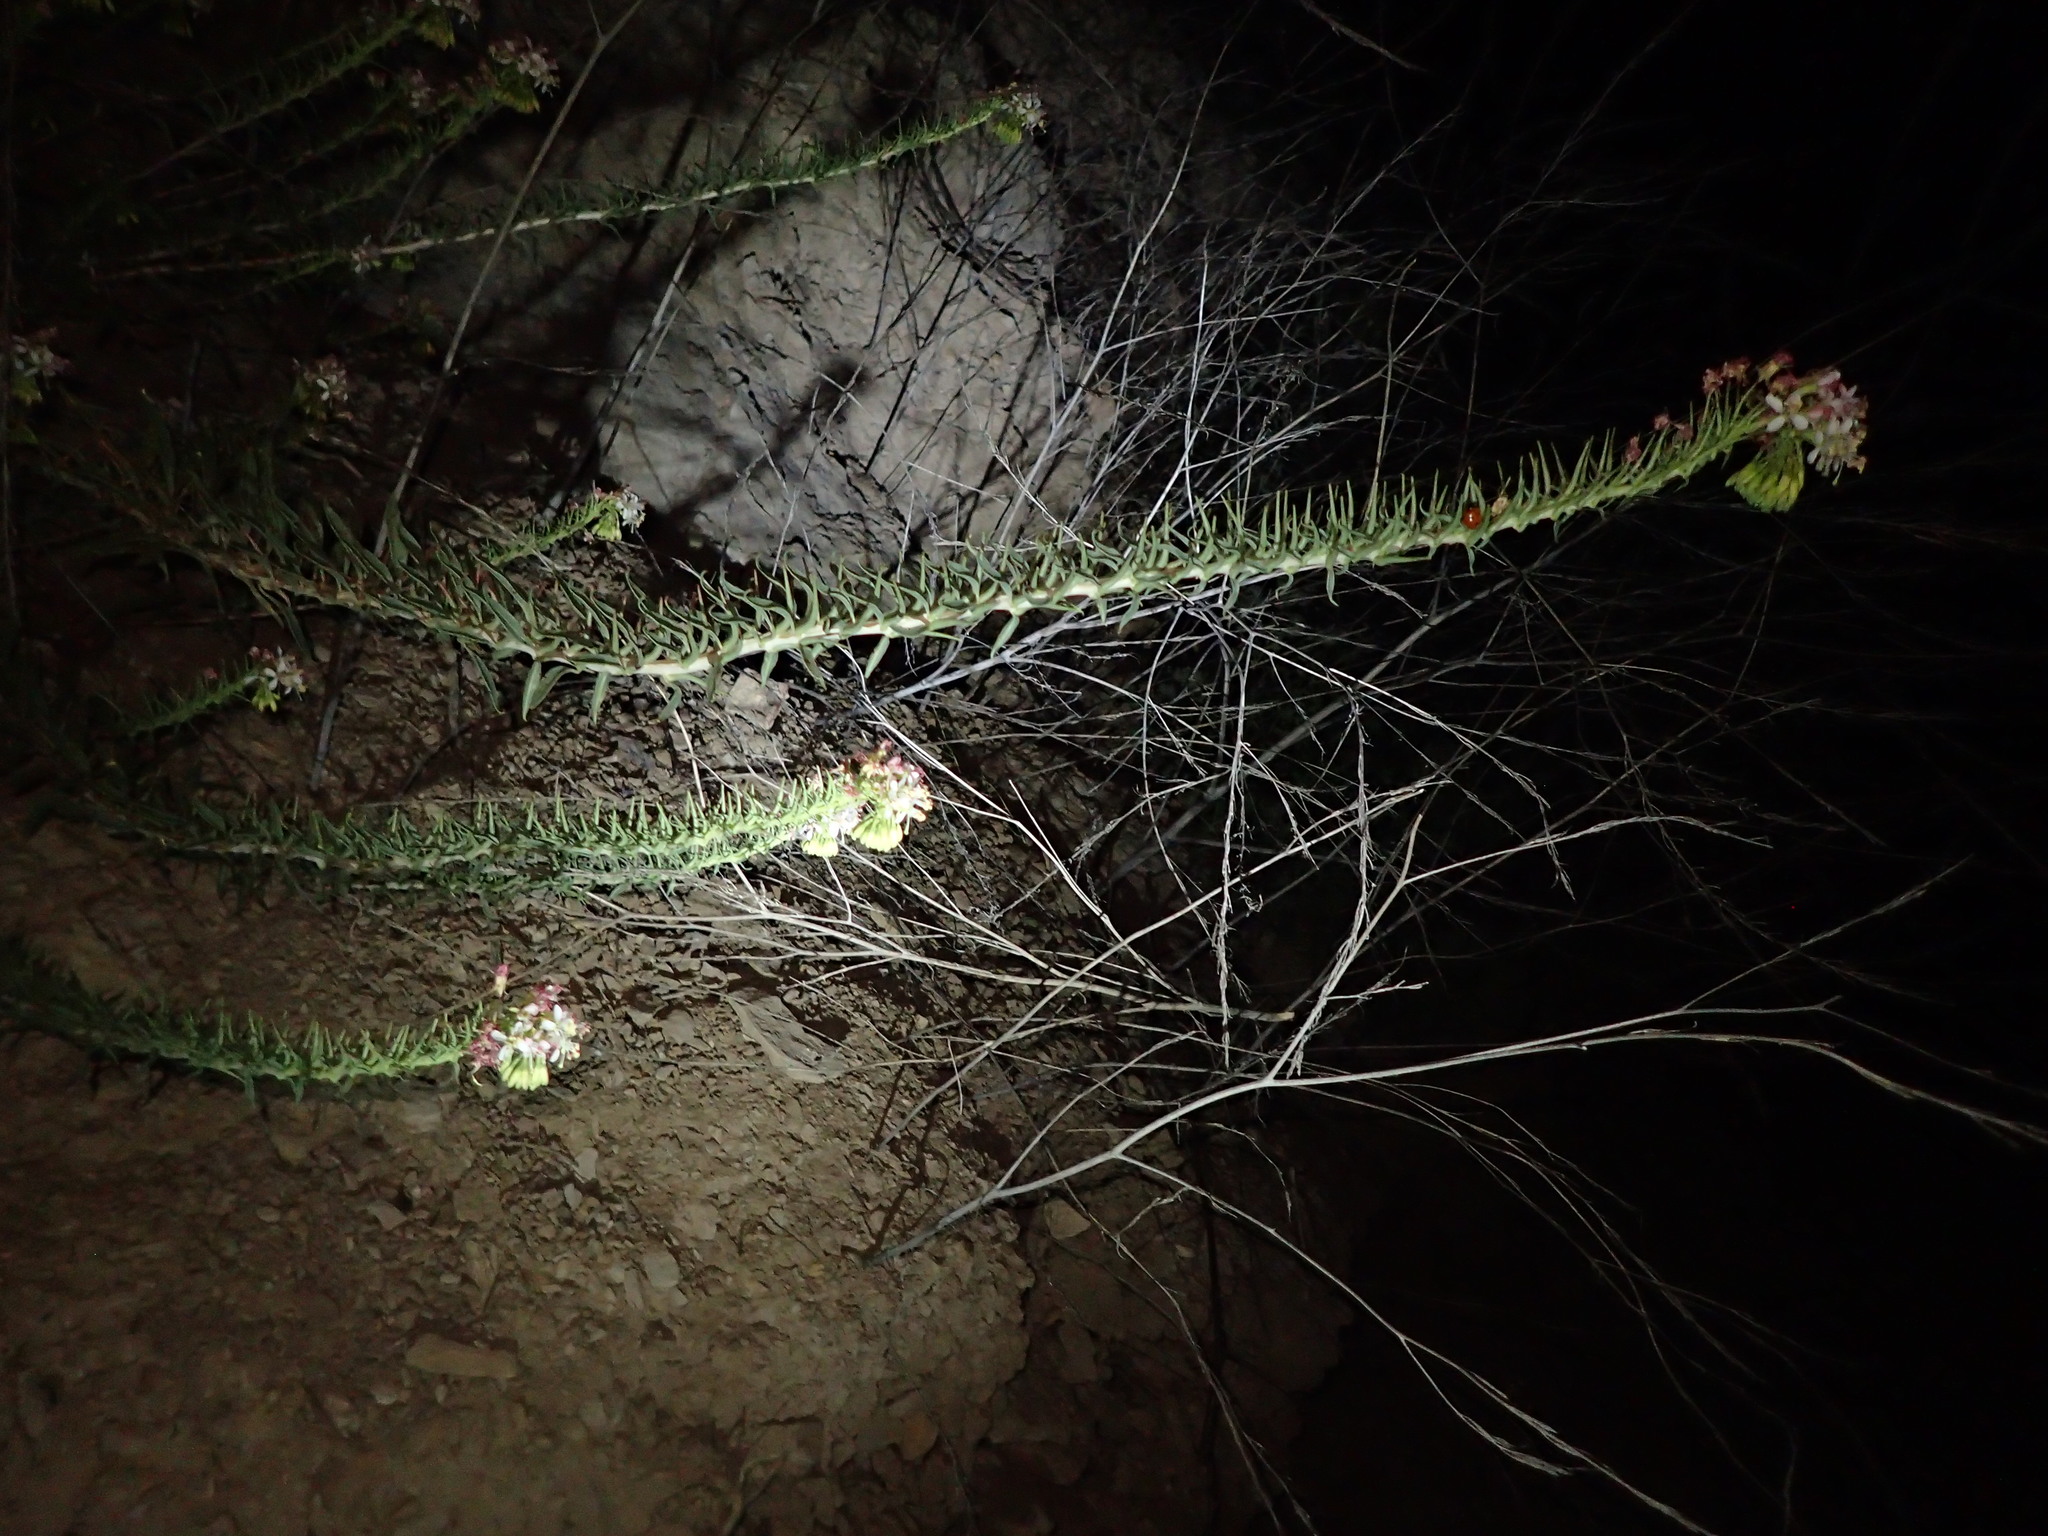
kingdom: Plantae
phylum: Tracheophyta
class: Magnoliopsida
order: Myrtales
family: Onagraceae
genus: Eremothera
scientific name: Eremothera boothii
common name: Booth's evening primrose
